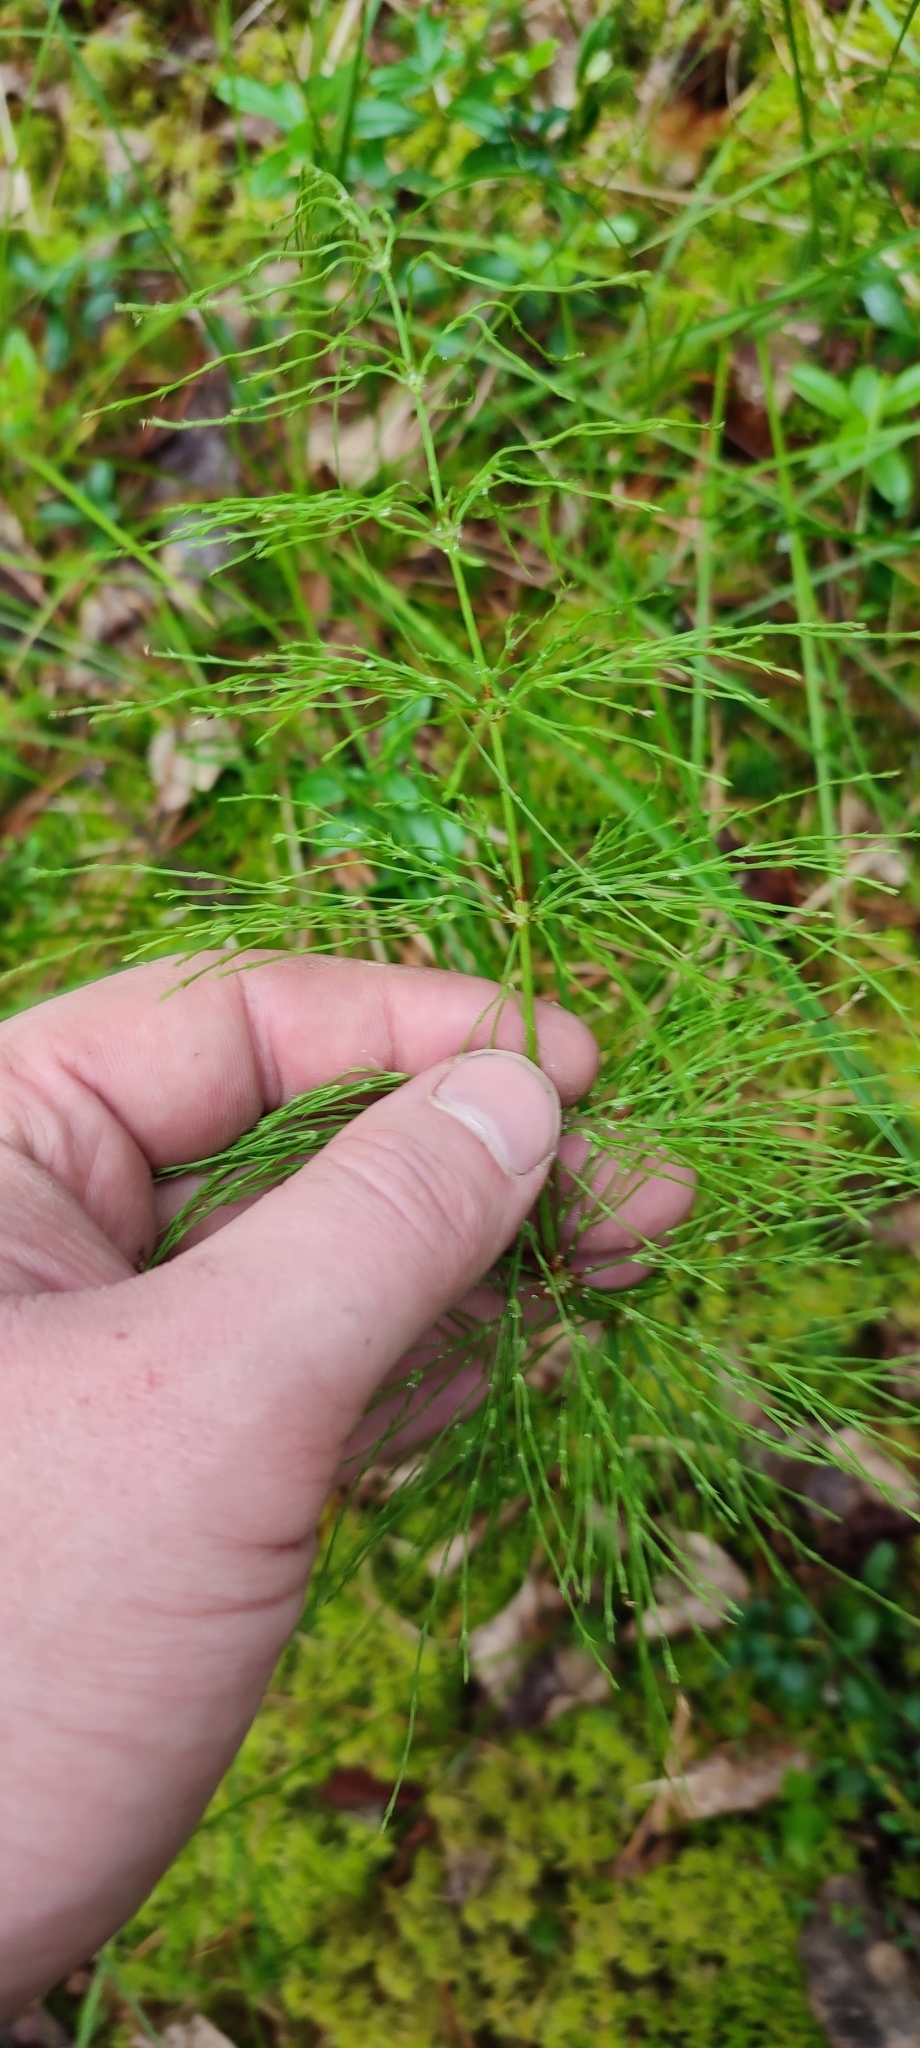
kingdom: Plantae
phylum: Tracheophyta
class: Polypodiopsida
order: Equisetales
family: Equisetaceae
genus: Equisetum
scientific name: Equisetum sylvaticum
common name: Wood horsetail
